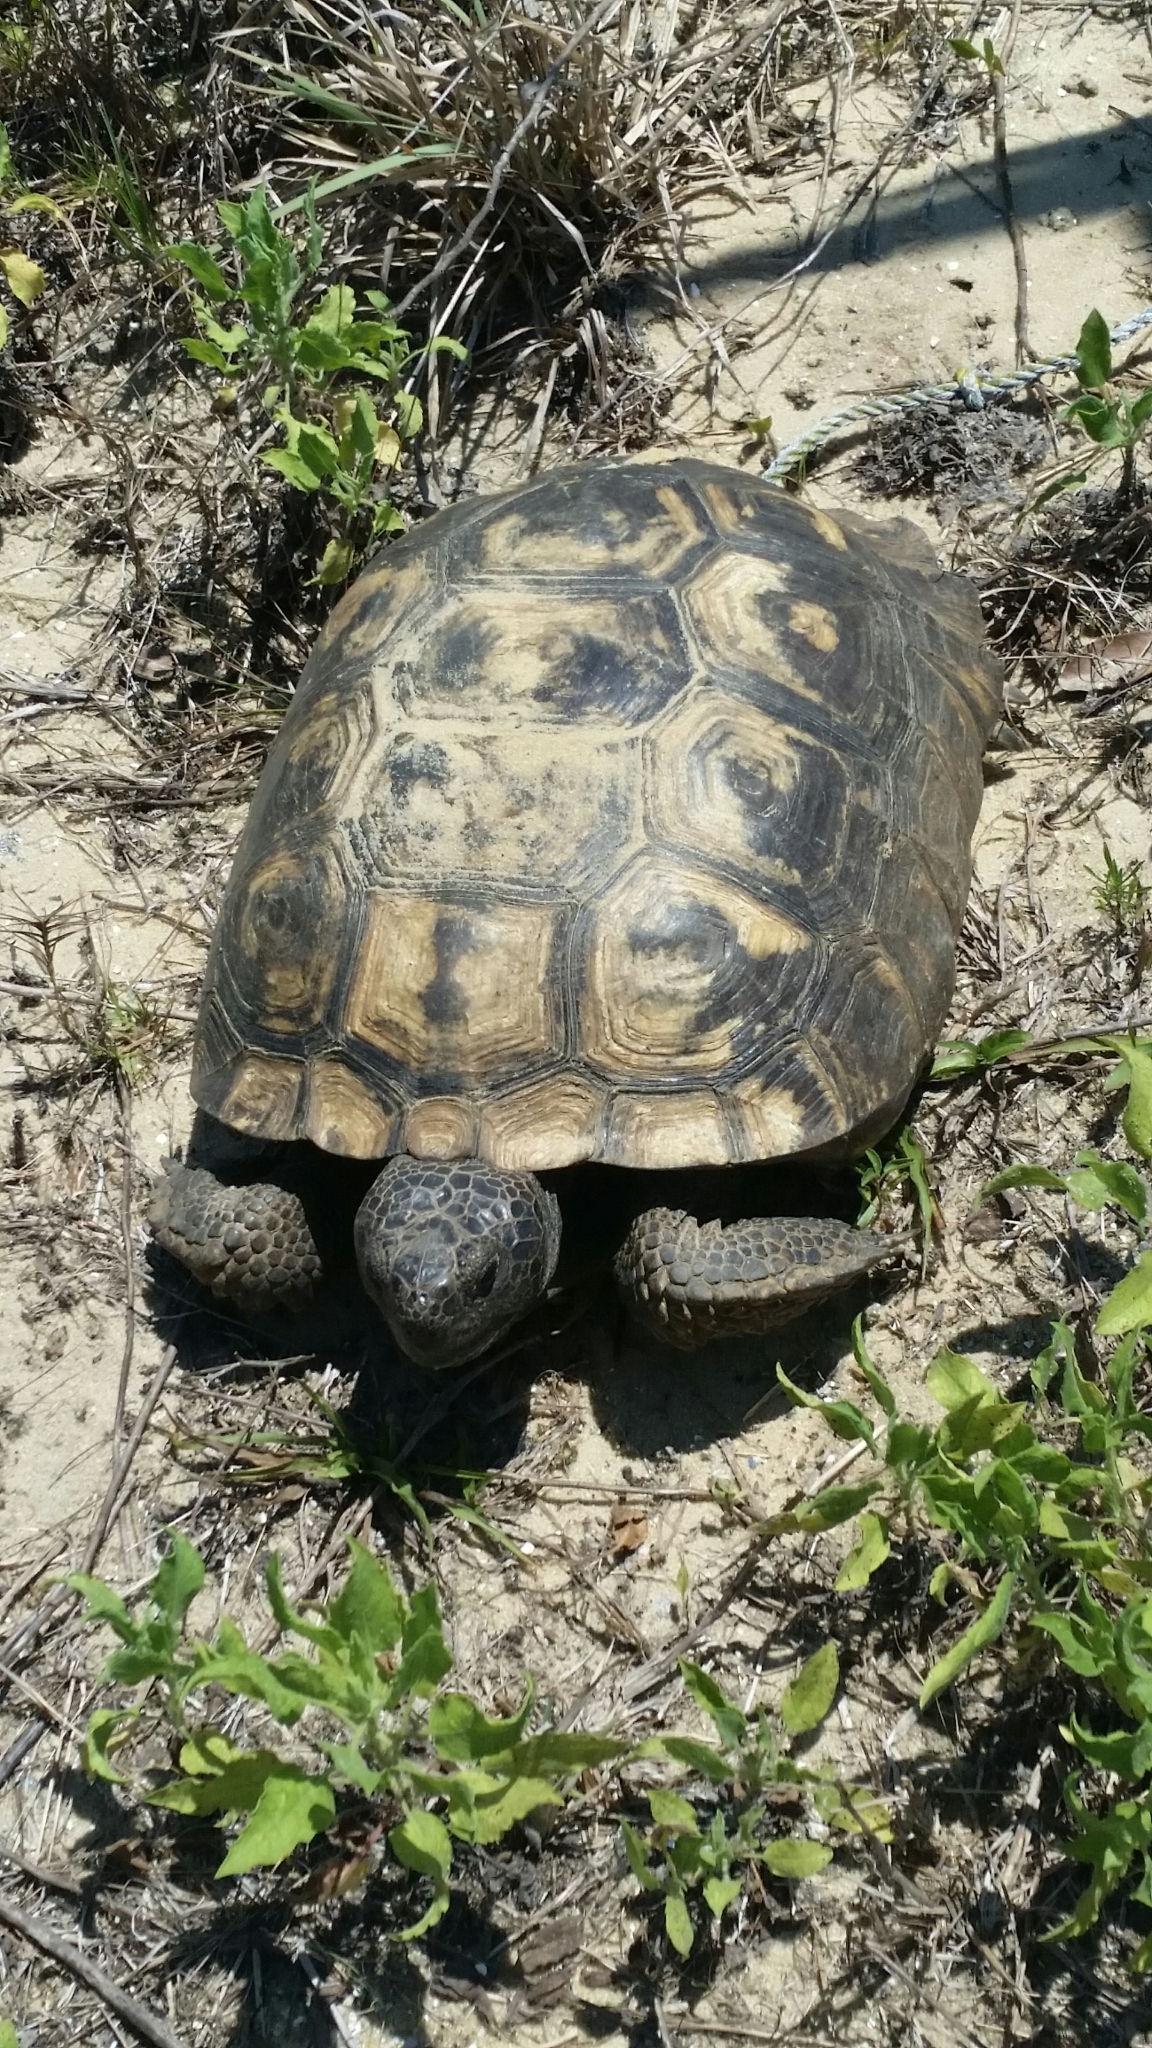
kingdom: Animalia
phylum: Chordata
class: Testudines
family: Testudinidae
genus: Gopherus
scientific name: Gopherus polyphemus
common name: Florida gopher tortoise
